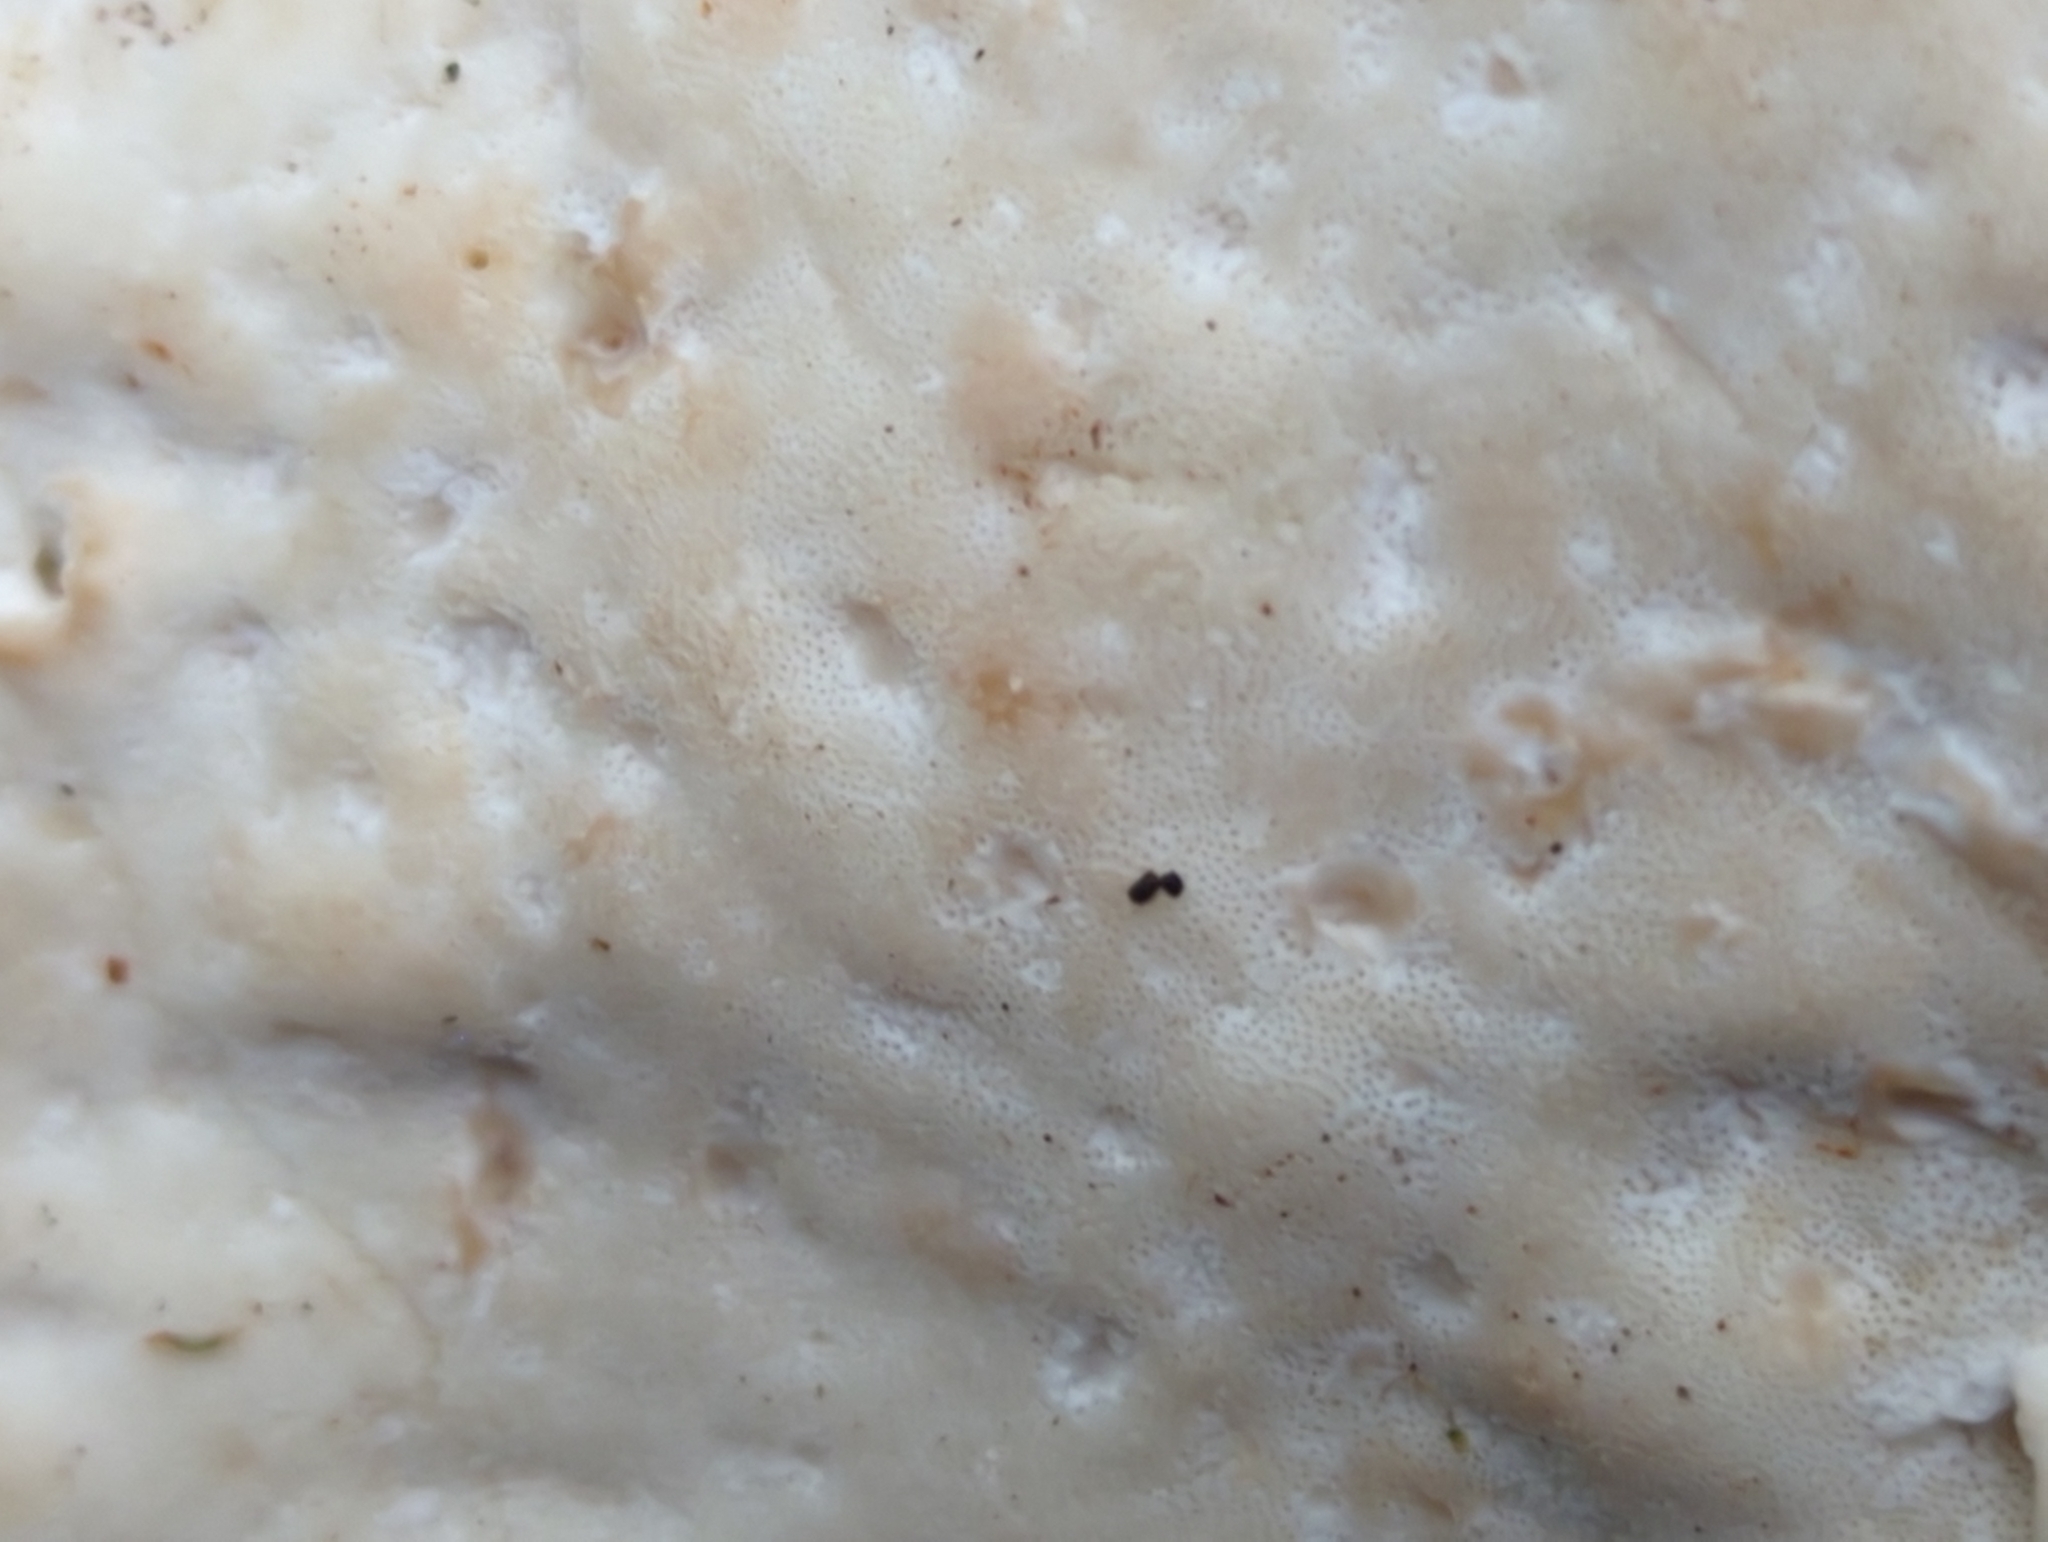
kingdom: Fungi
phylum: Basidiomycota
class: Agaricomycetes
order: Polyporales
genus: Calcipostia
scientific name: Calcipostia guttulata
